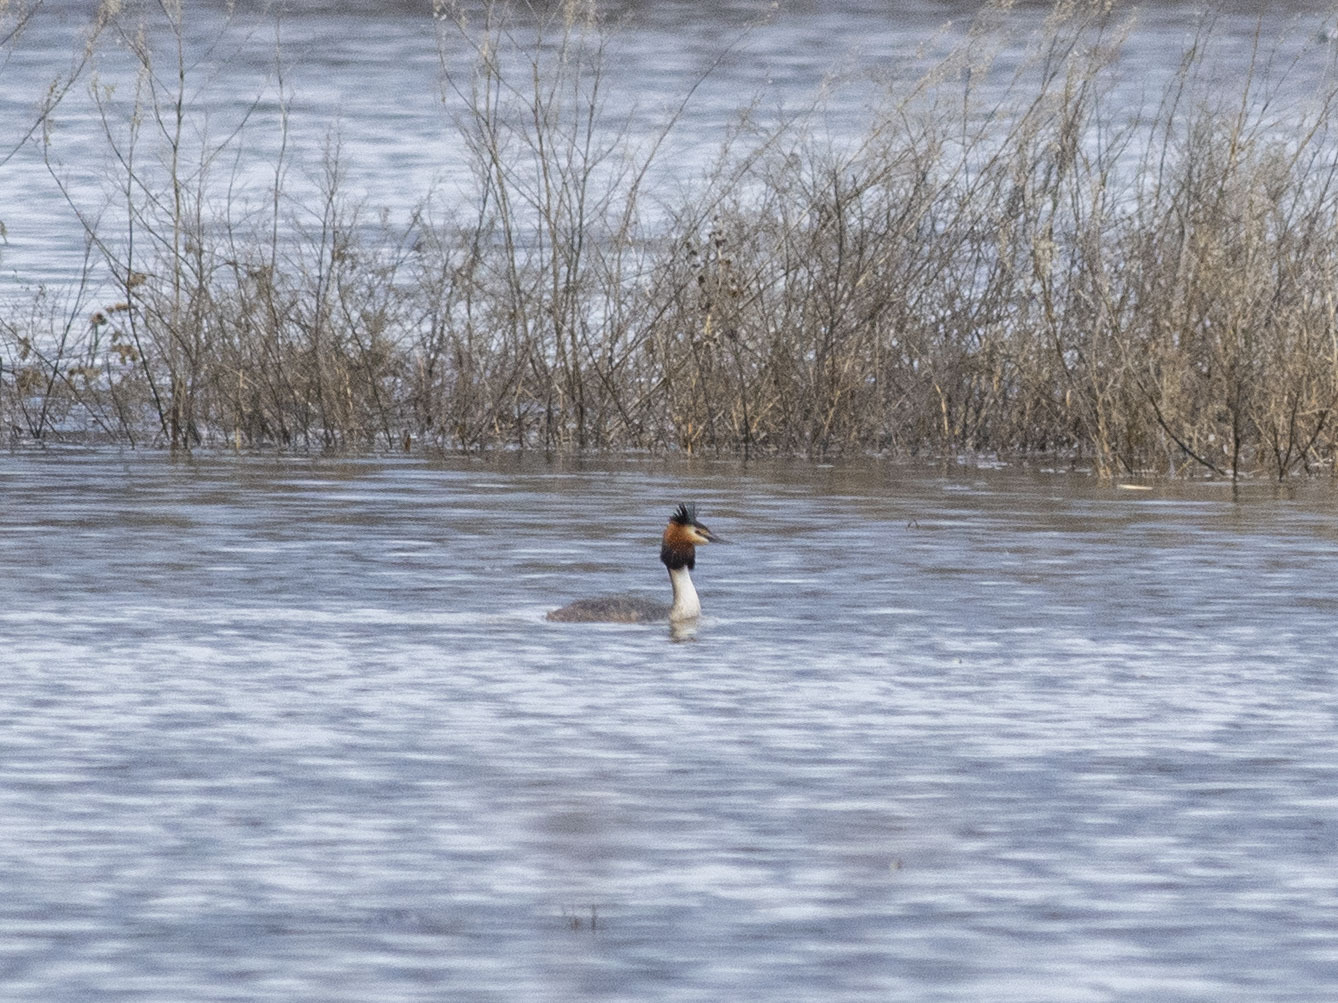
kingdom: Animalia
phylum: Chordata
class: Aves
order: Podicipediformes
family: Podicipedidae
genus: Podiceps
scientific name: Podiceps cristatus
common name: Great crested grebe
